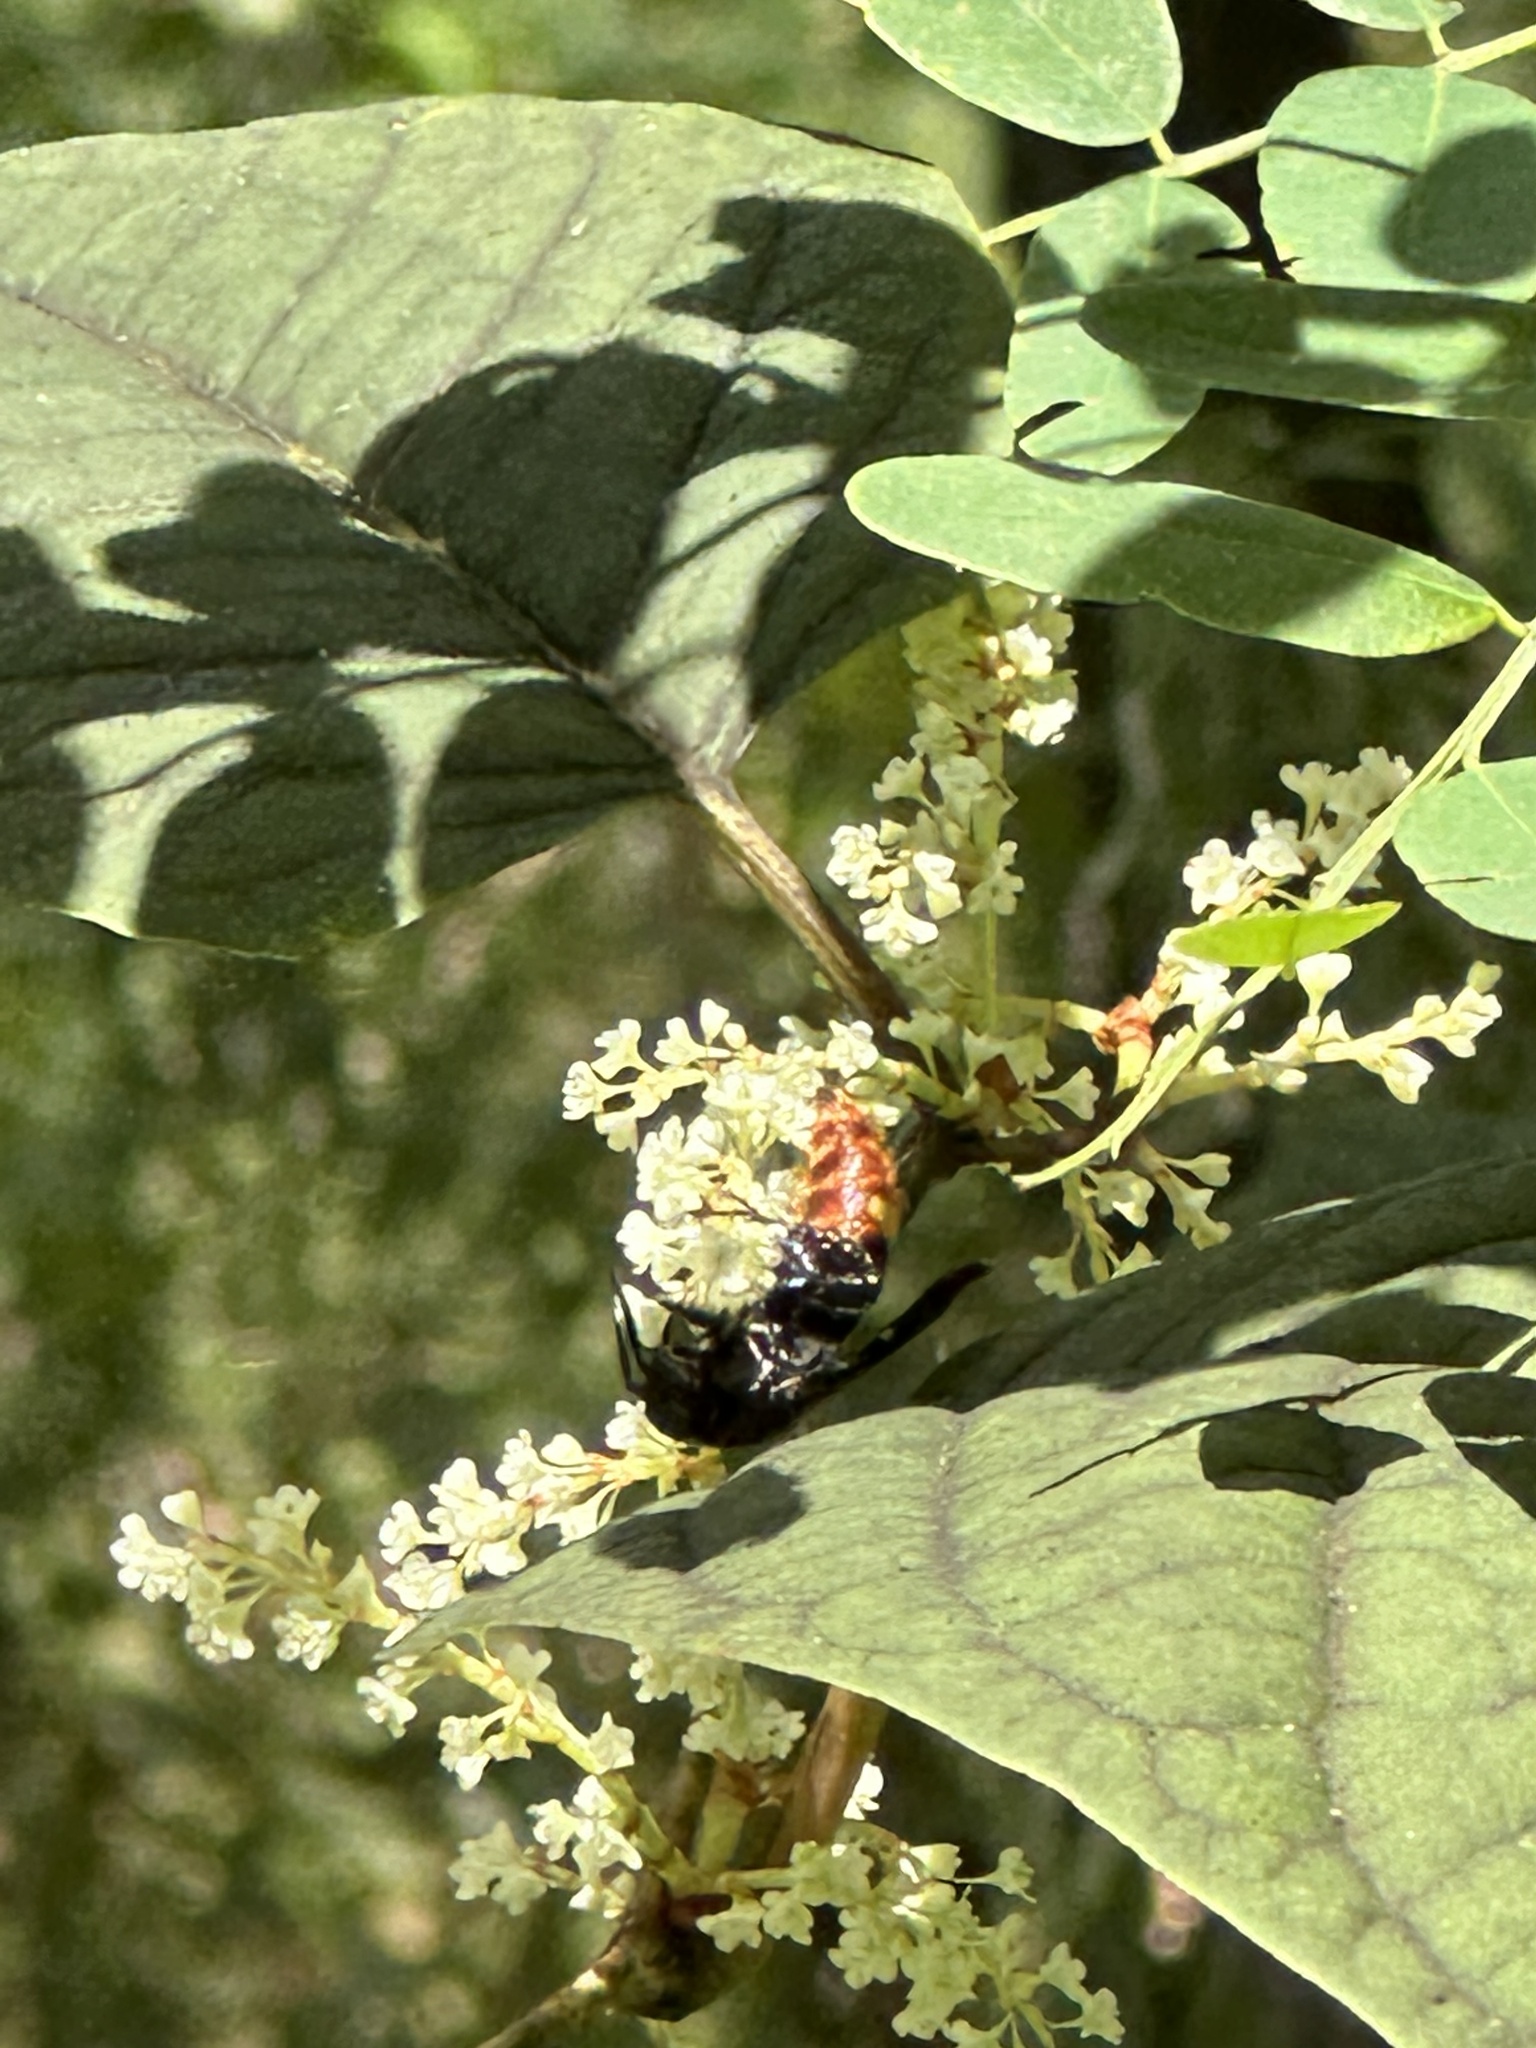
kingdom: Animalia
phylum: Arthropoda
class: Insecta
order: Hymenoptera
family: Scoliidae
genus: Scolia
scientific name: Scolia dubia
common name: Blue-winged scoliid wasp
